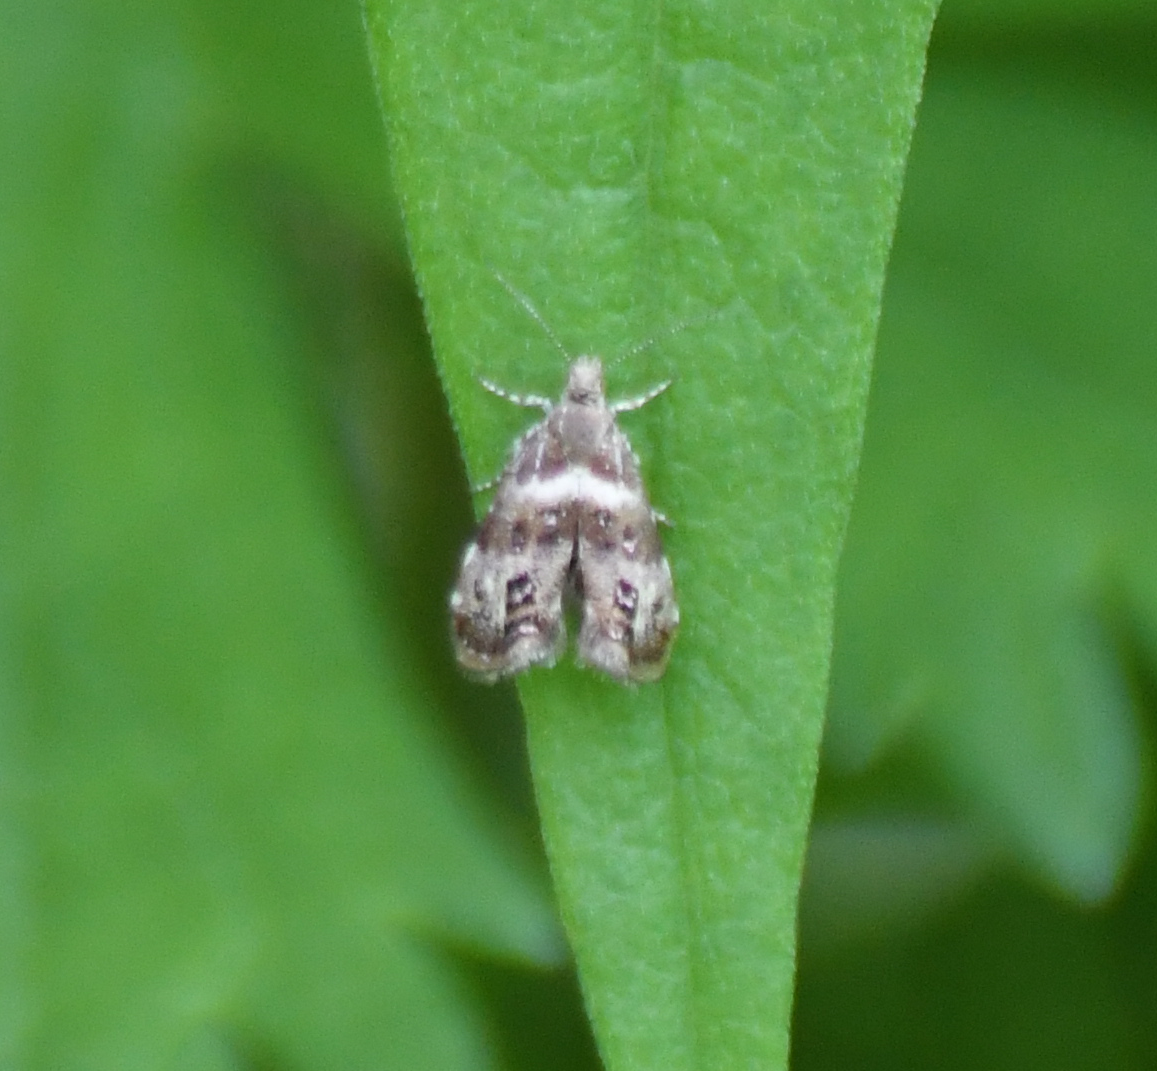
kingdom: Animalia
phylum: Arthropoda
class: Insecta
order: Lepidoptera
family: Choreutidae
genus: Tebenna
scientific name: Tebenna onustana
